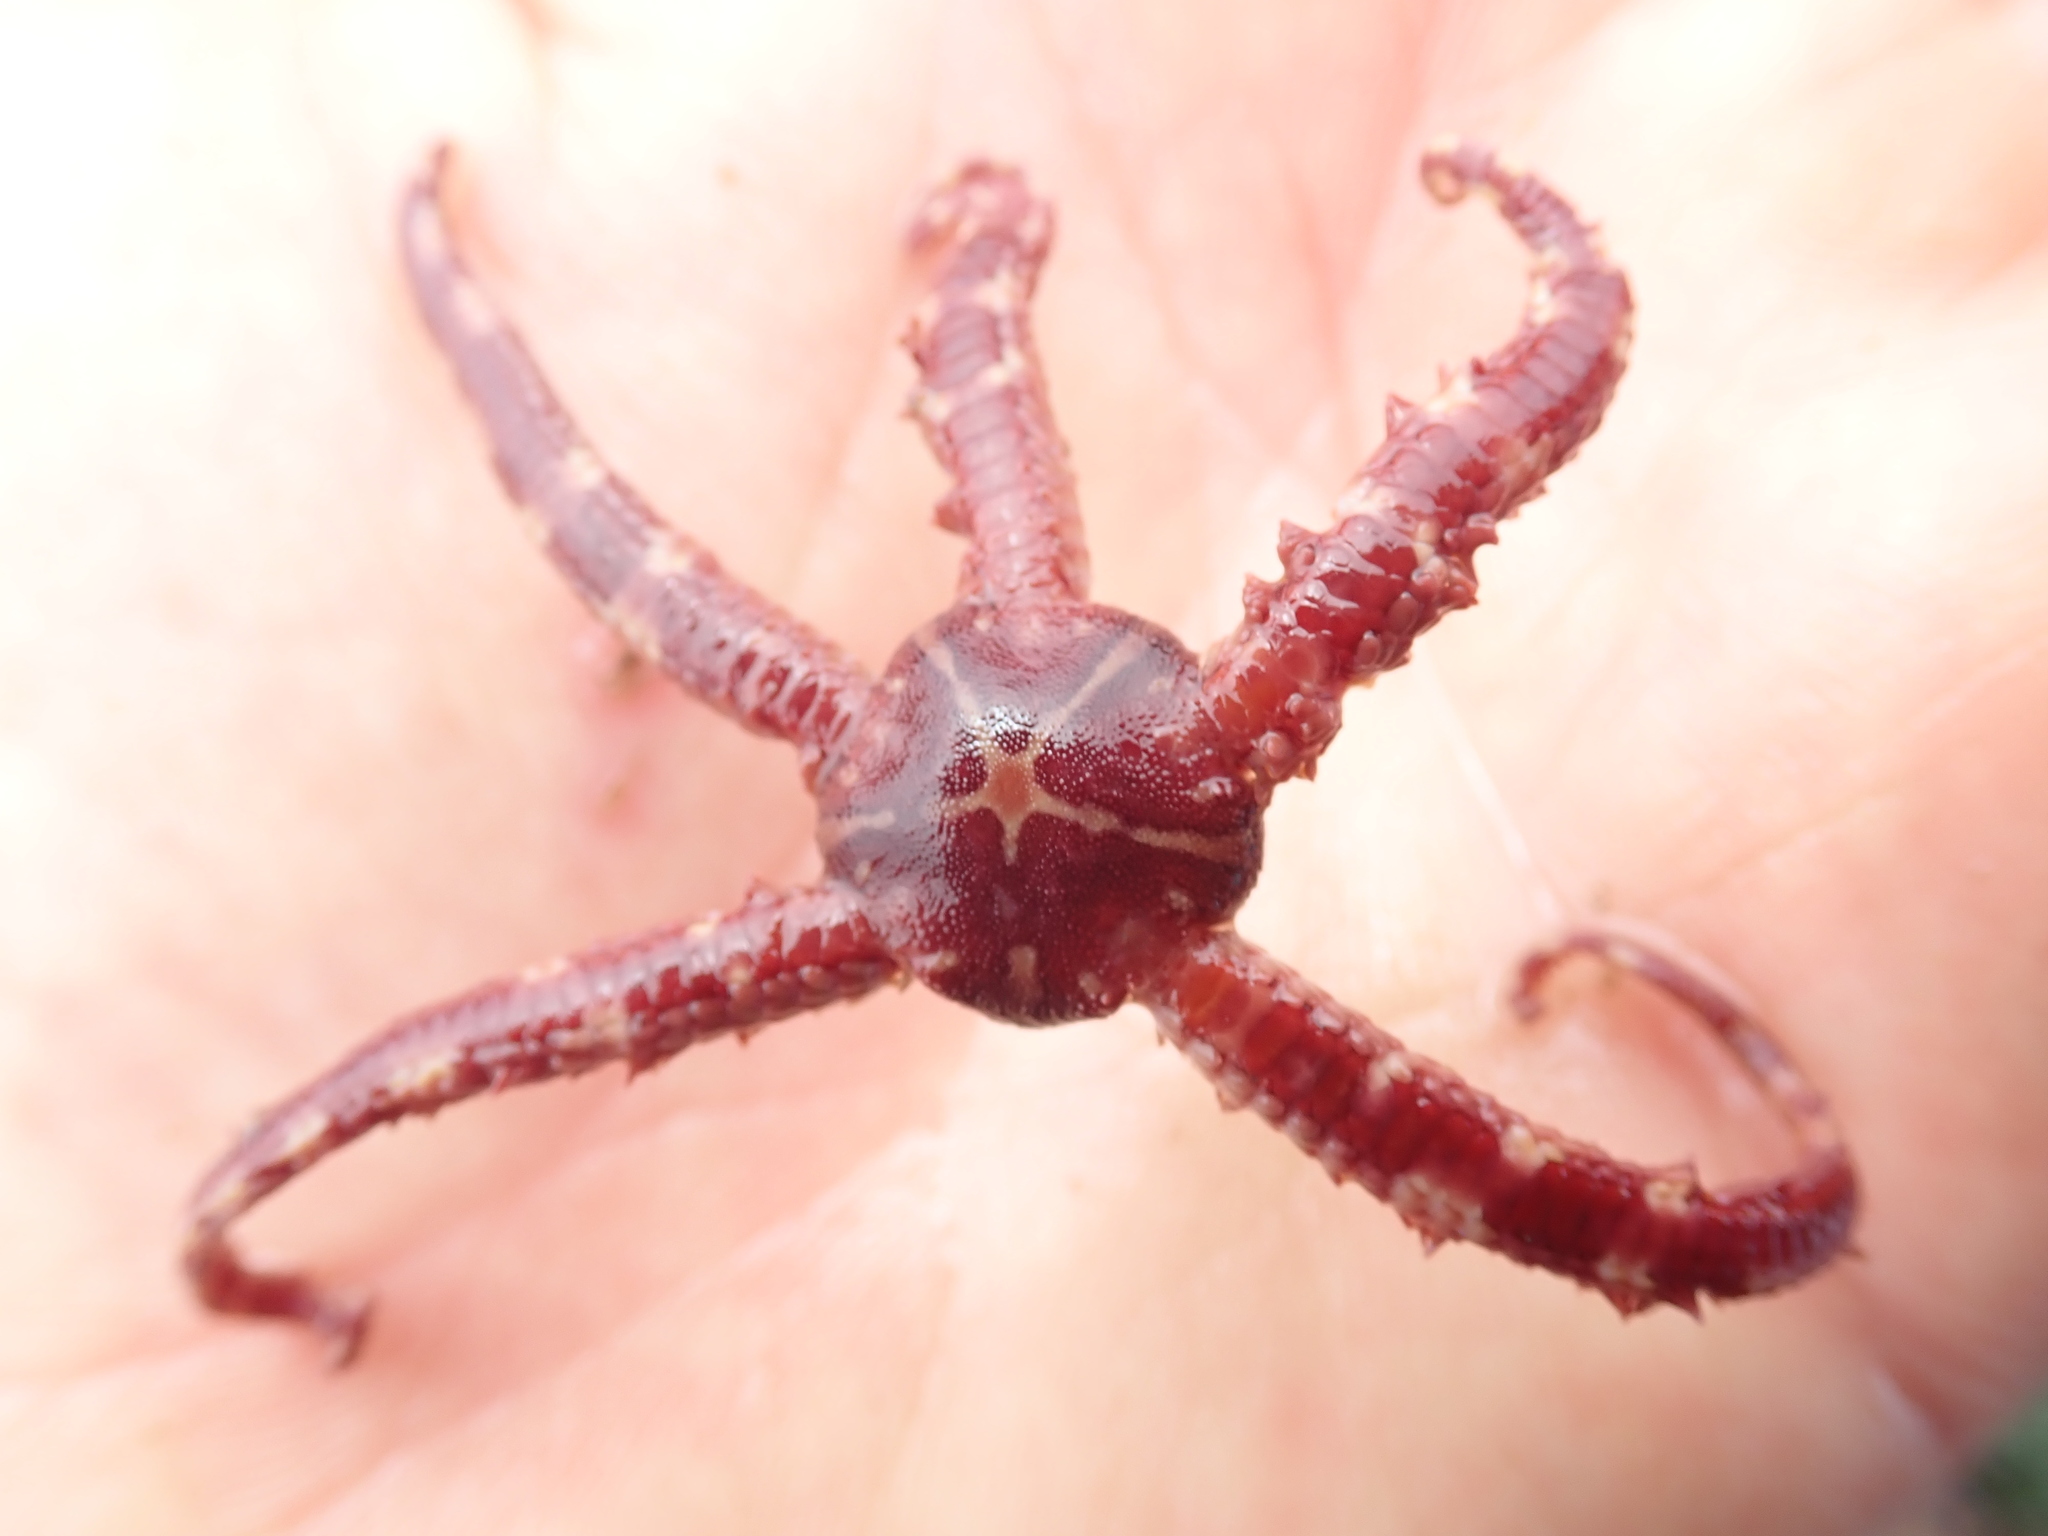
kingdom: Animalia
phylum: Echinodermata
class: Ophiuroidea
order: Amphilepidida
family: Ophiopholidae
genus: Ophiopholis
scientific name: Ophiopholis aculeata
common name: Crevice brittlestar
